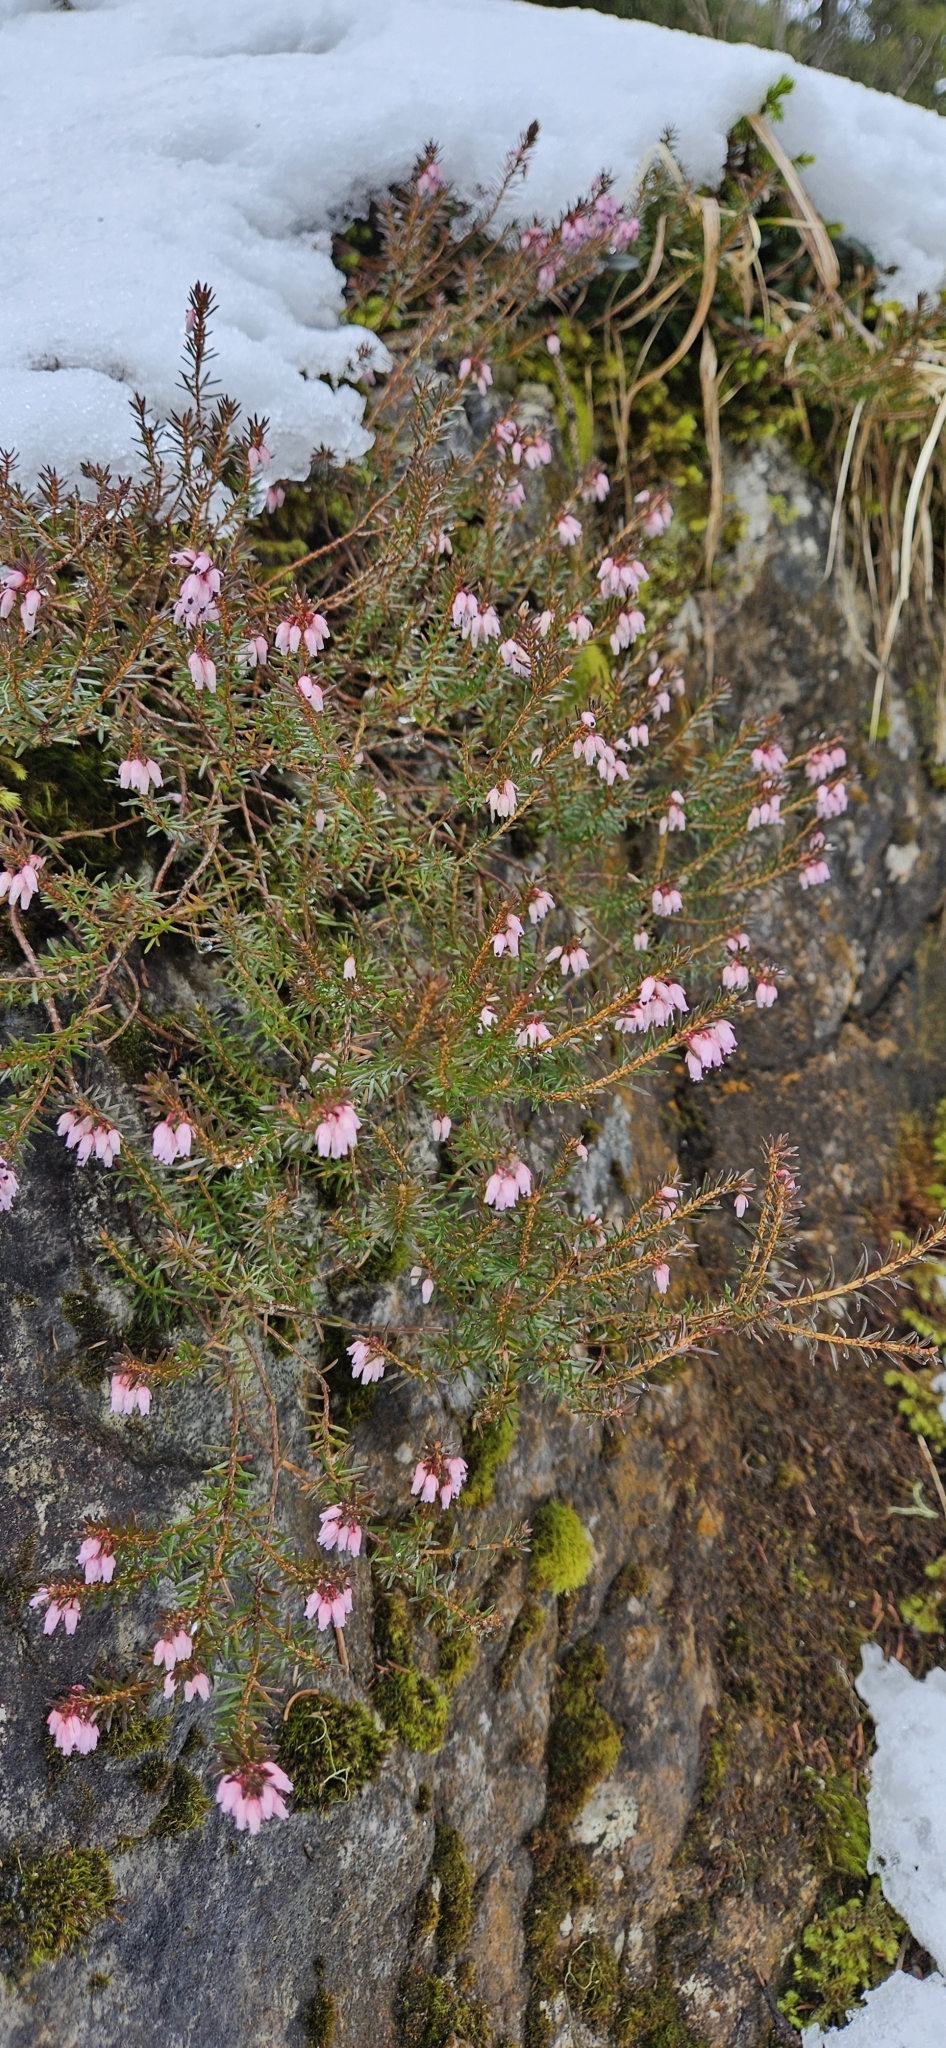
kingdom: Plantae
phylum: Tracheophyta
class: Magnoliopsida
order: Ericales
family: Ericaceae
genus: Erica
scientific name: Erica carnea
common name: Winter heath
